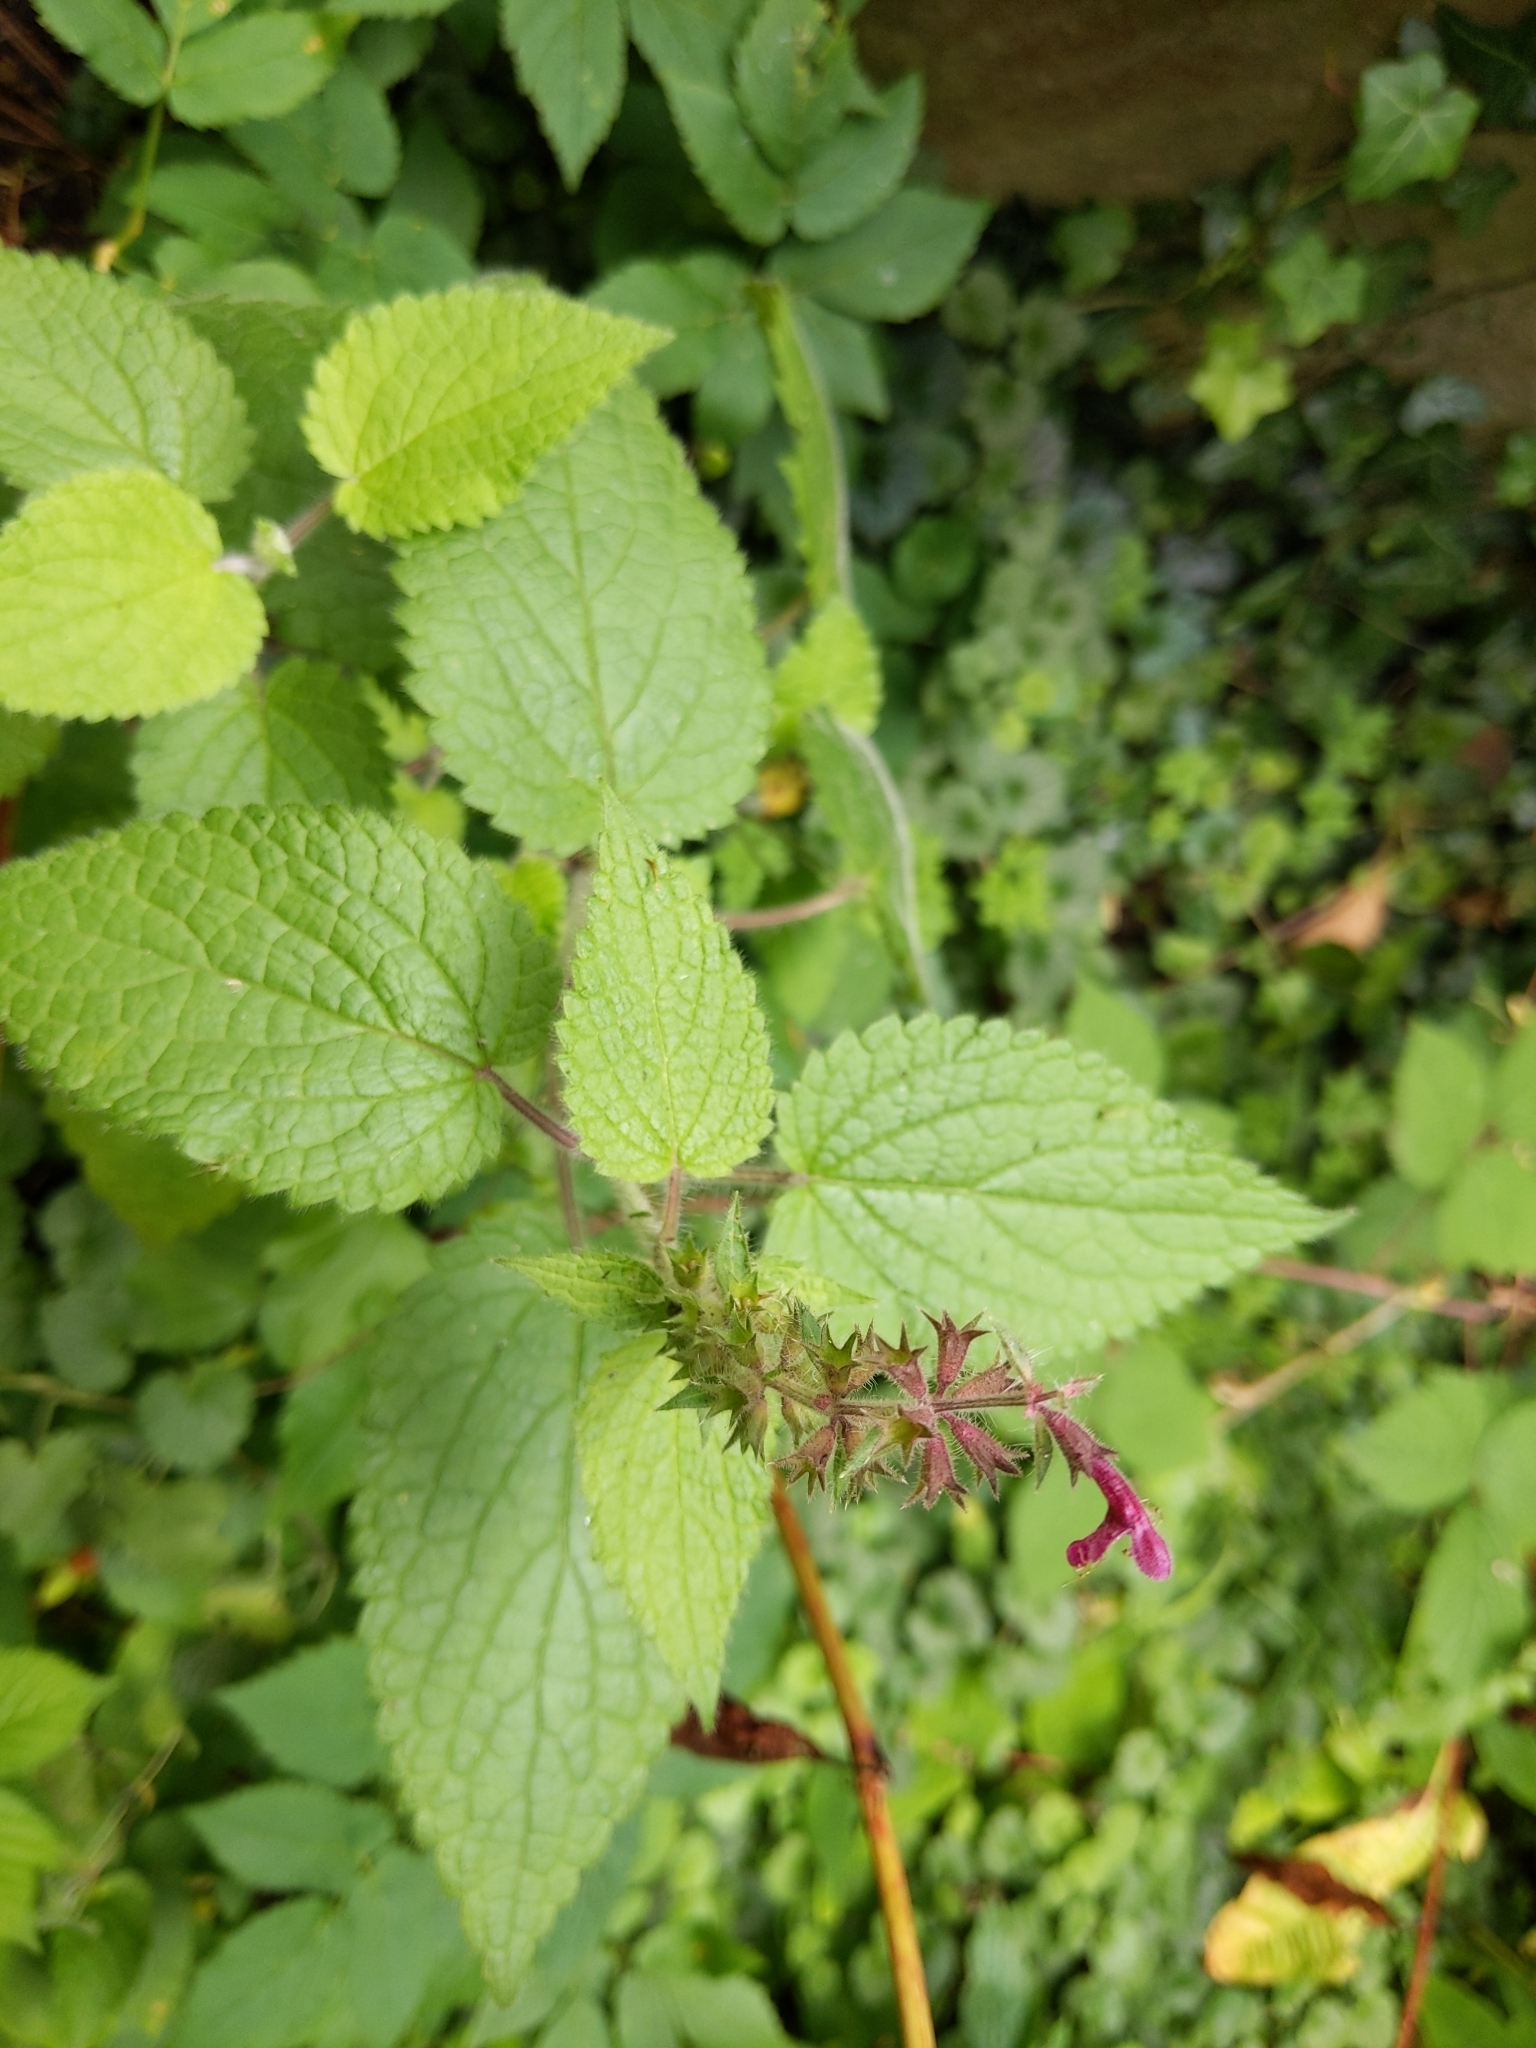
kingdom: Plantae
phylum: Tracheophyta
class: Magnoliopsida
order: Lamiales
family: Lamiaceae
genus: Stachys
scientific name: Stachys sylvatica
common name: Hedge woundwort
